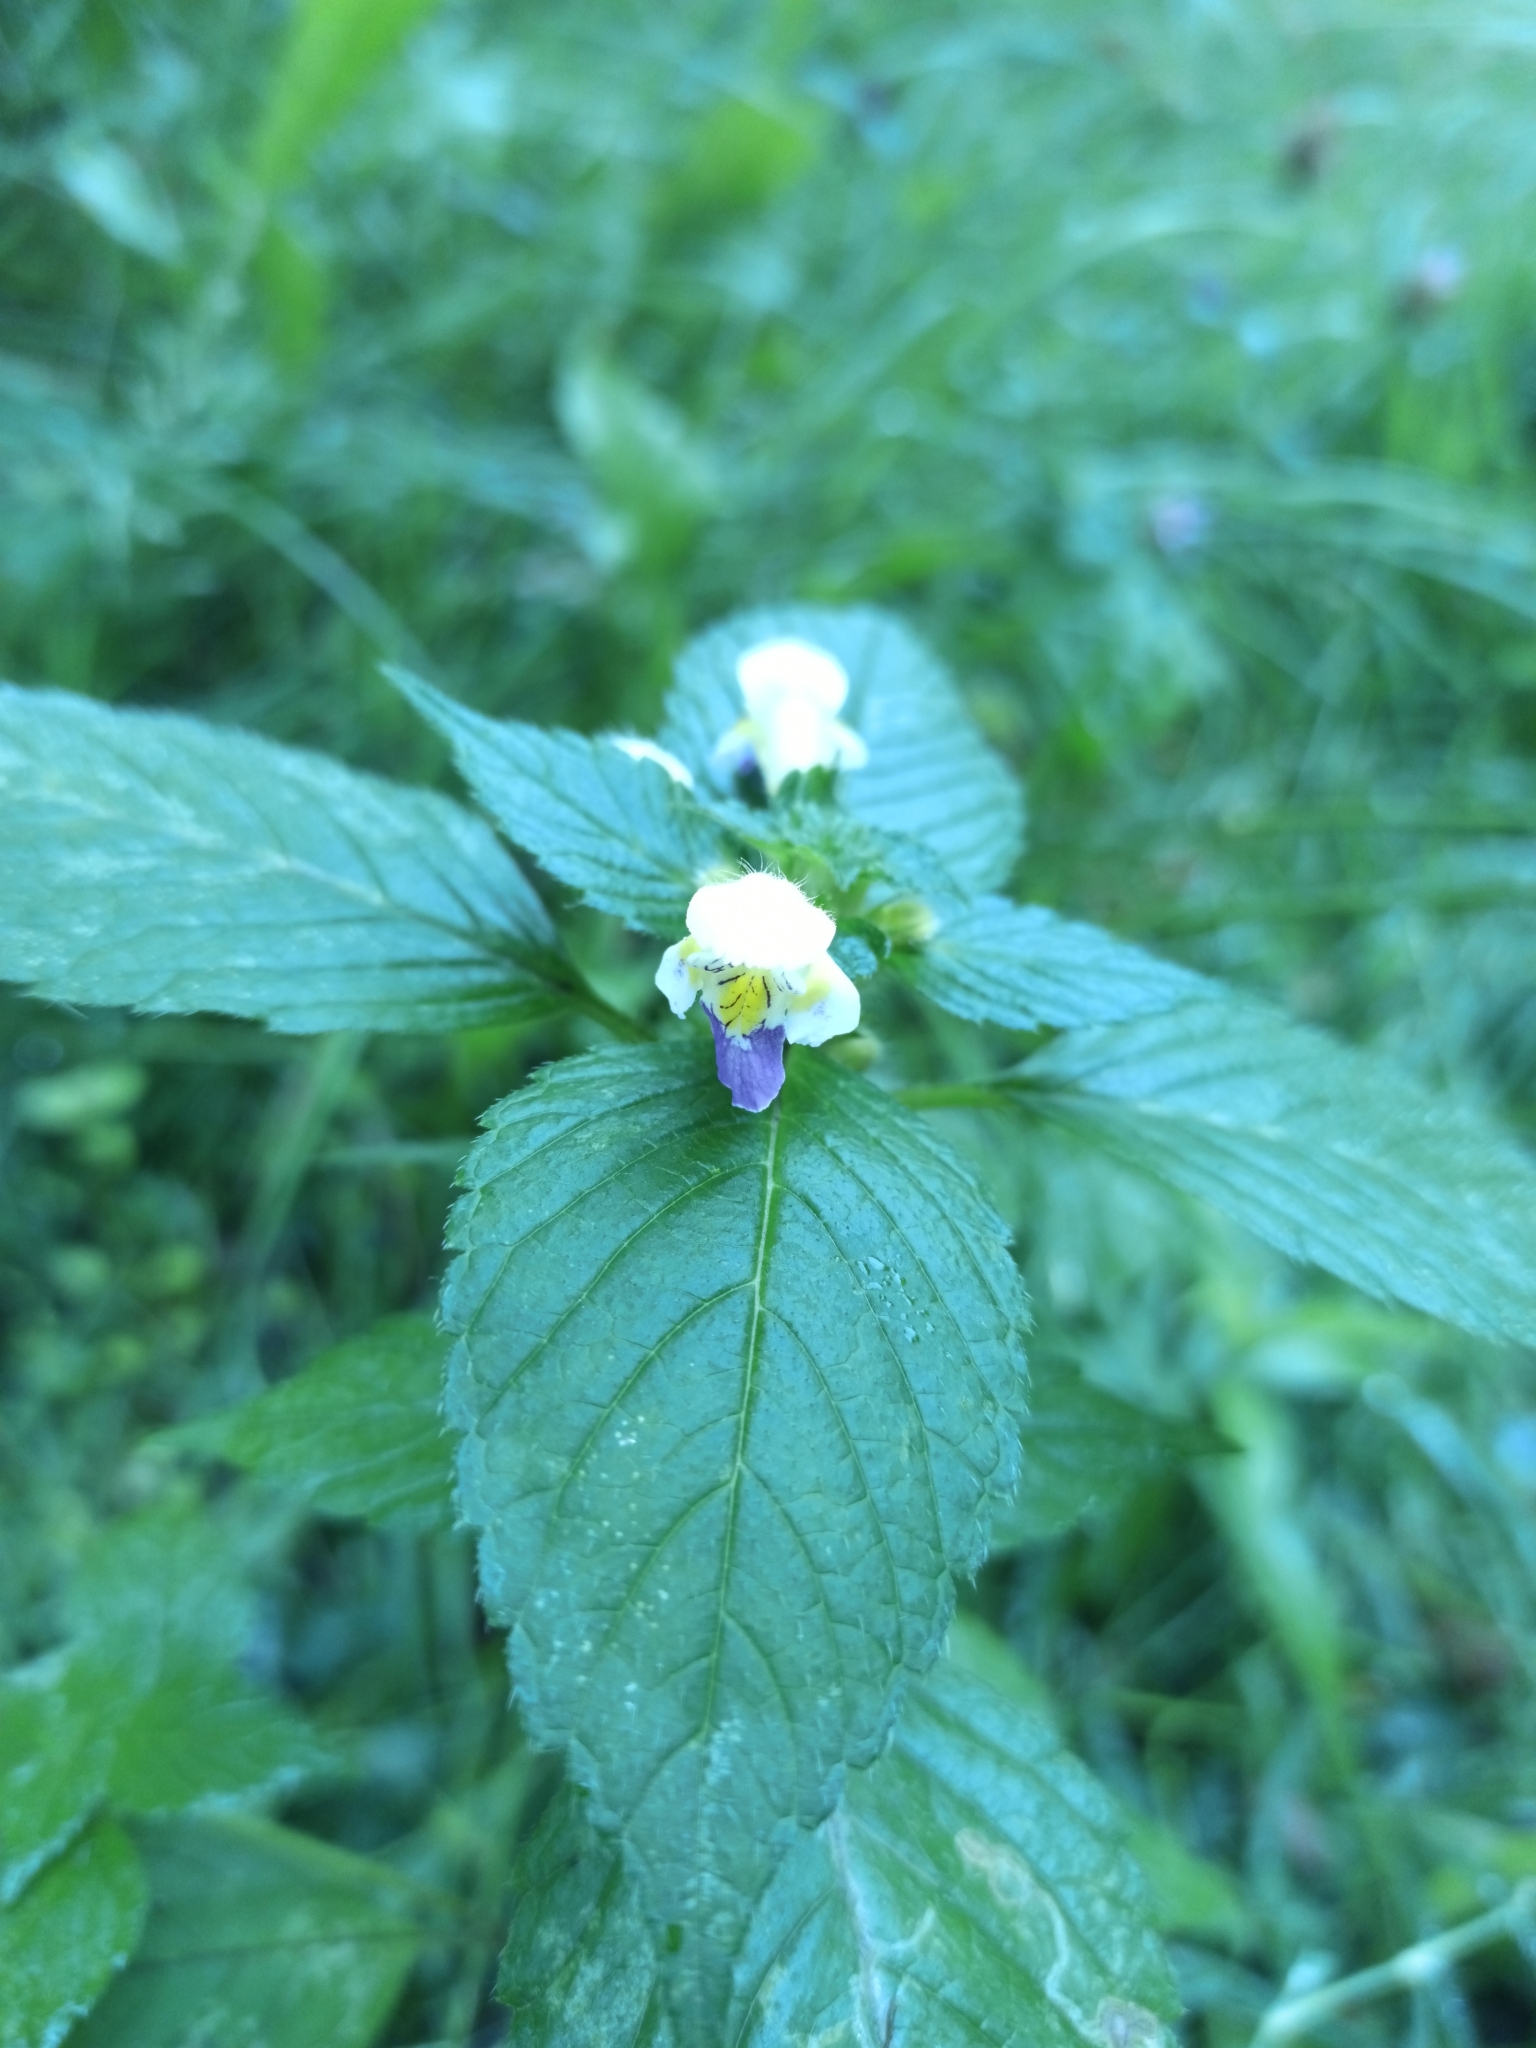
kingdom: Plantae
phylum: Tracheophyta
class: Magnoliopsida
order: Lamiales
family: Lamiaceae
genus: Galeopsis
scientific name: Galeopsis speciosa
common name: Large-flowered hemp-nettle
